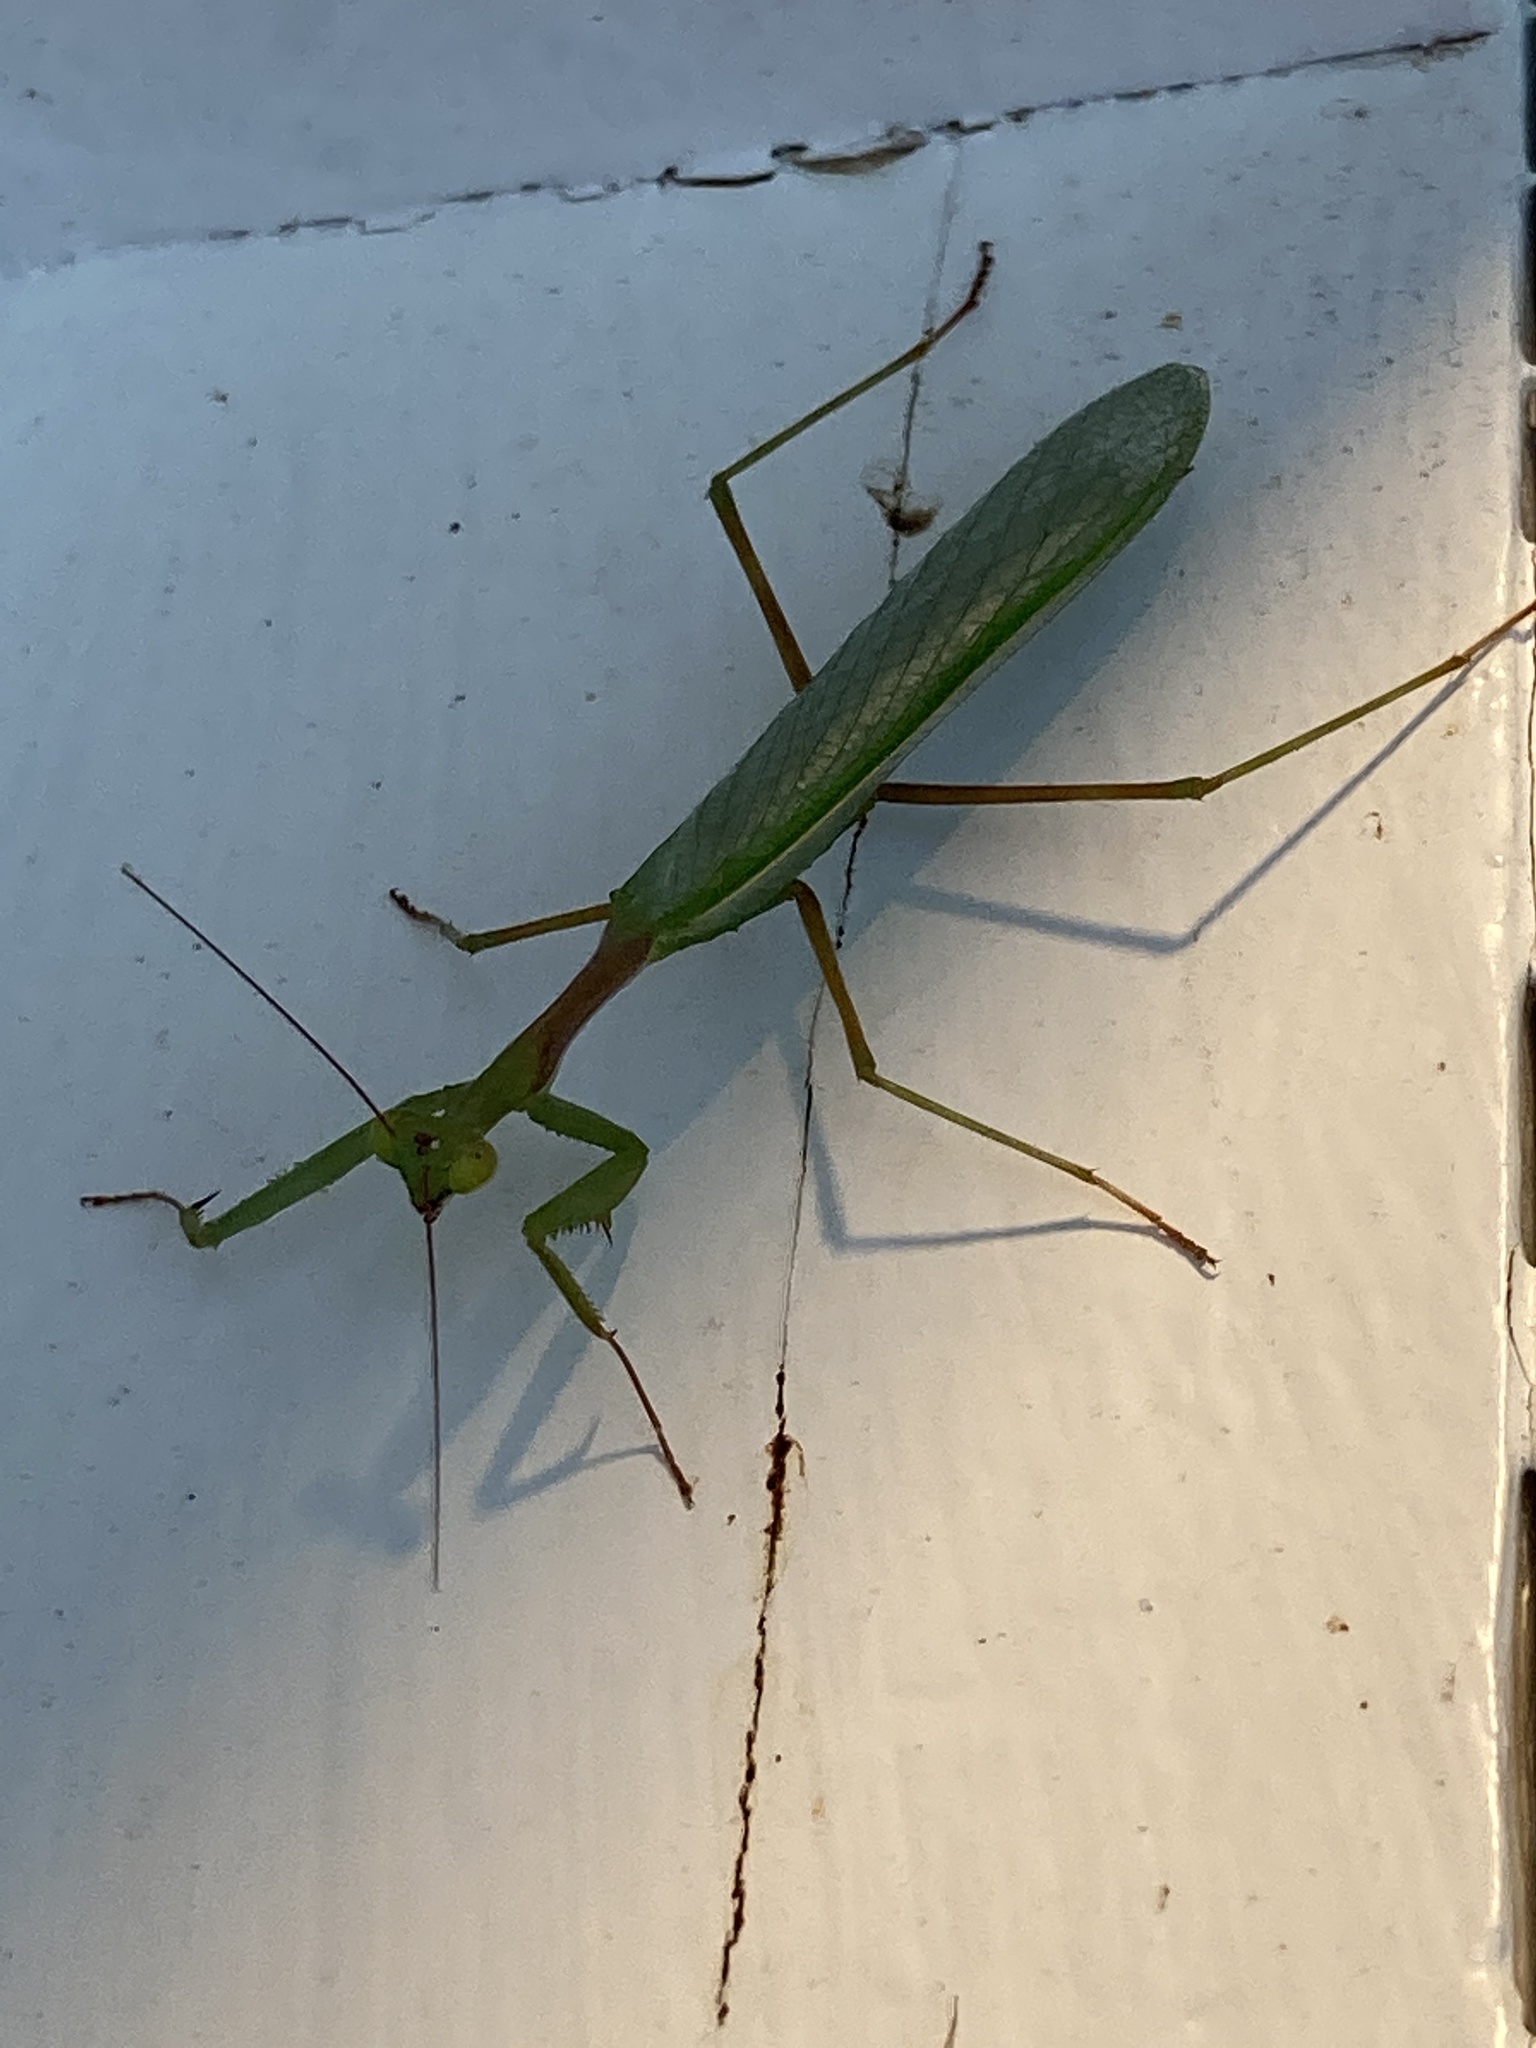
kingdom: Animalia
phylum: Arthropoda
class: Insecta
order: Mantodea
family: Miomantidae
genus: Miomantis
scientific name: Miomantis caffra
